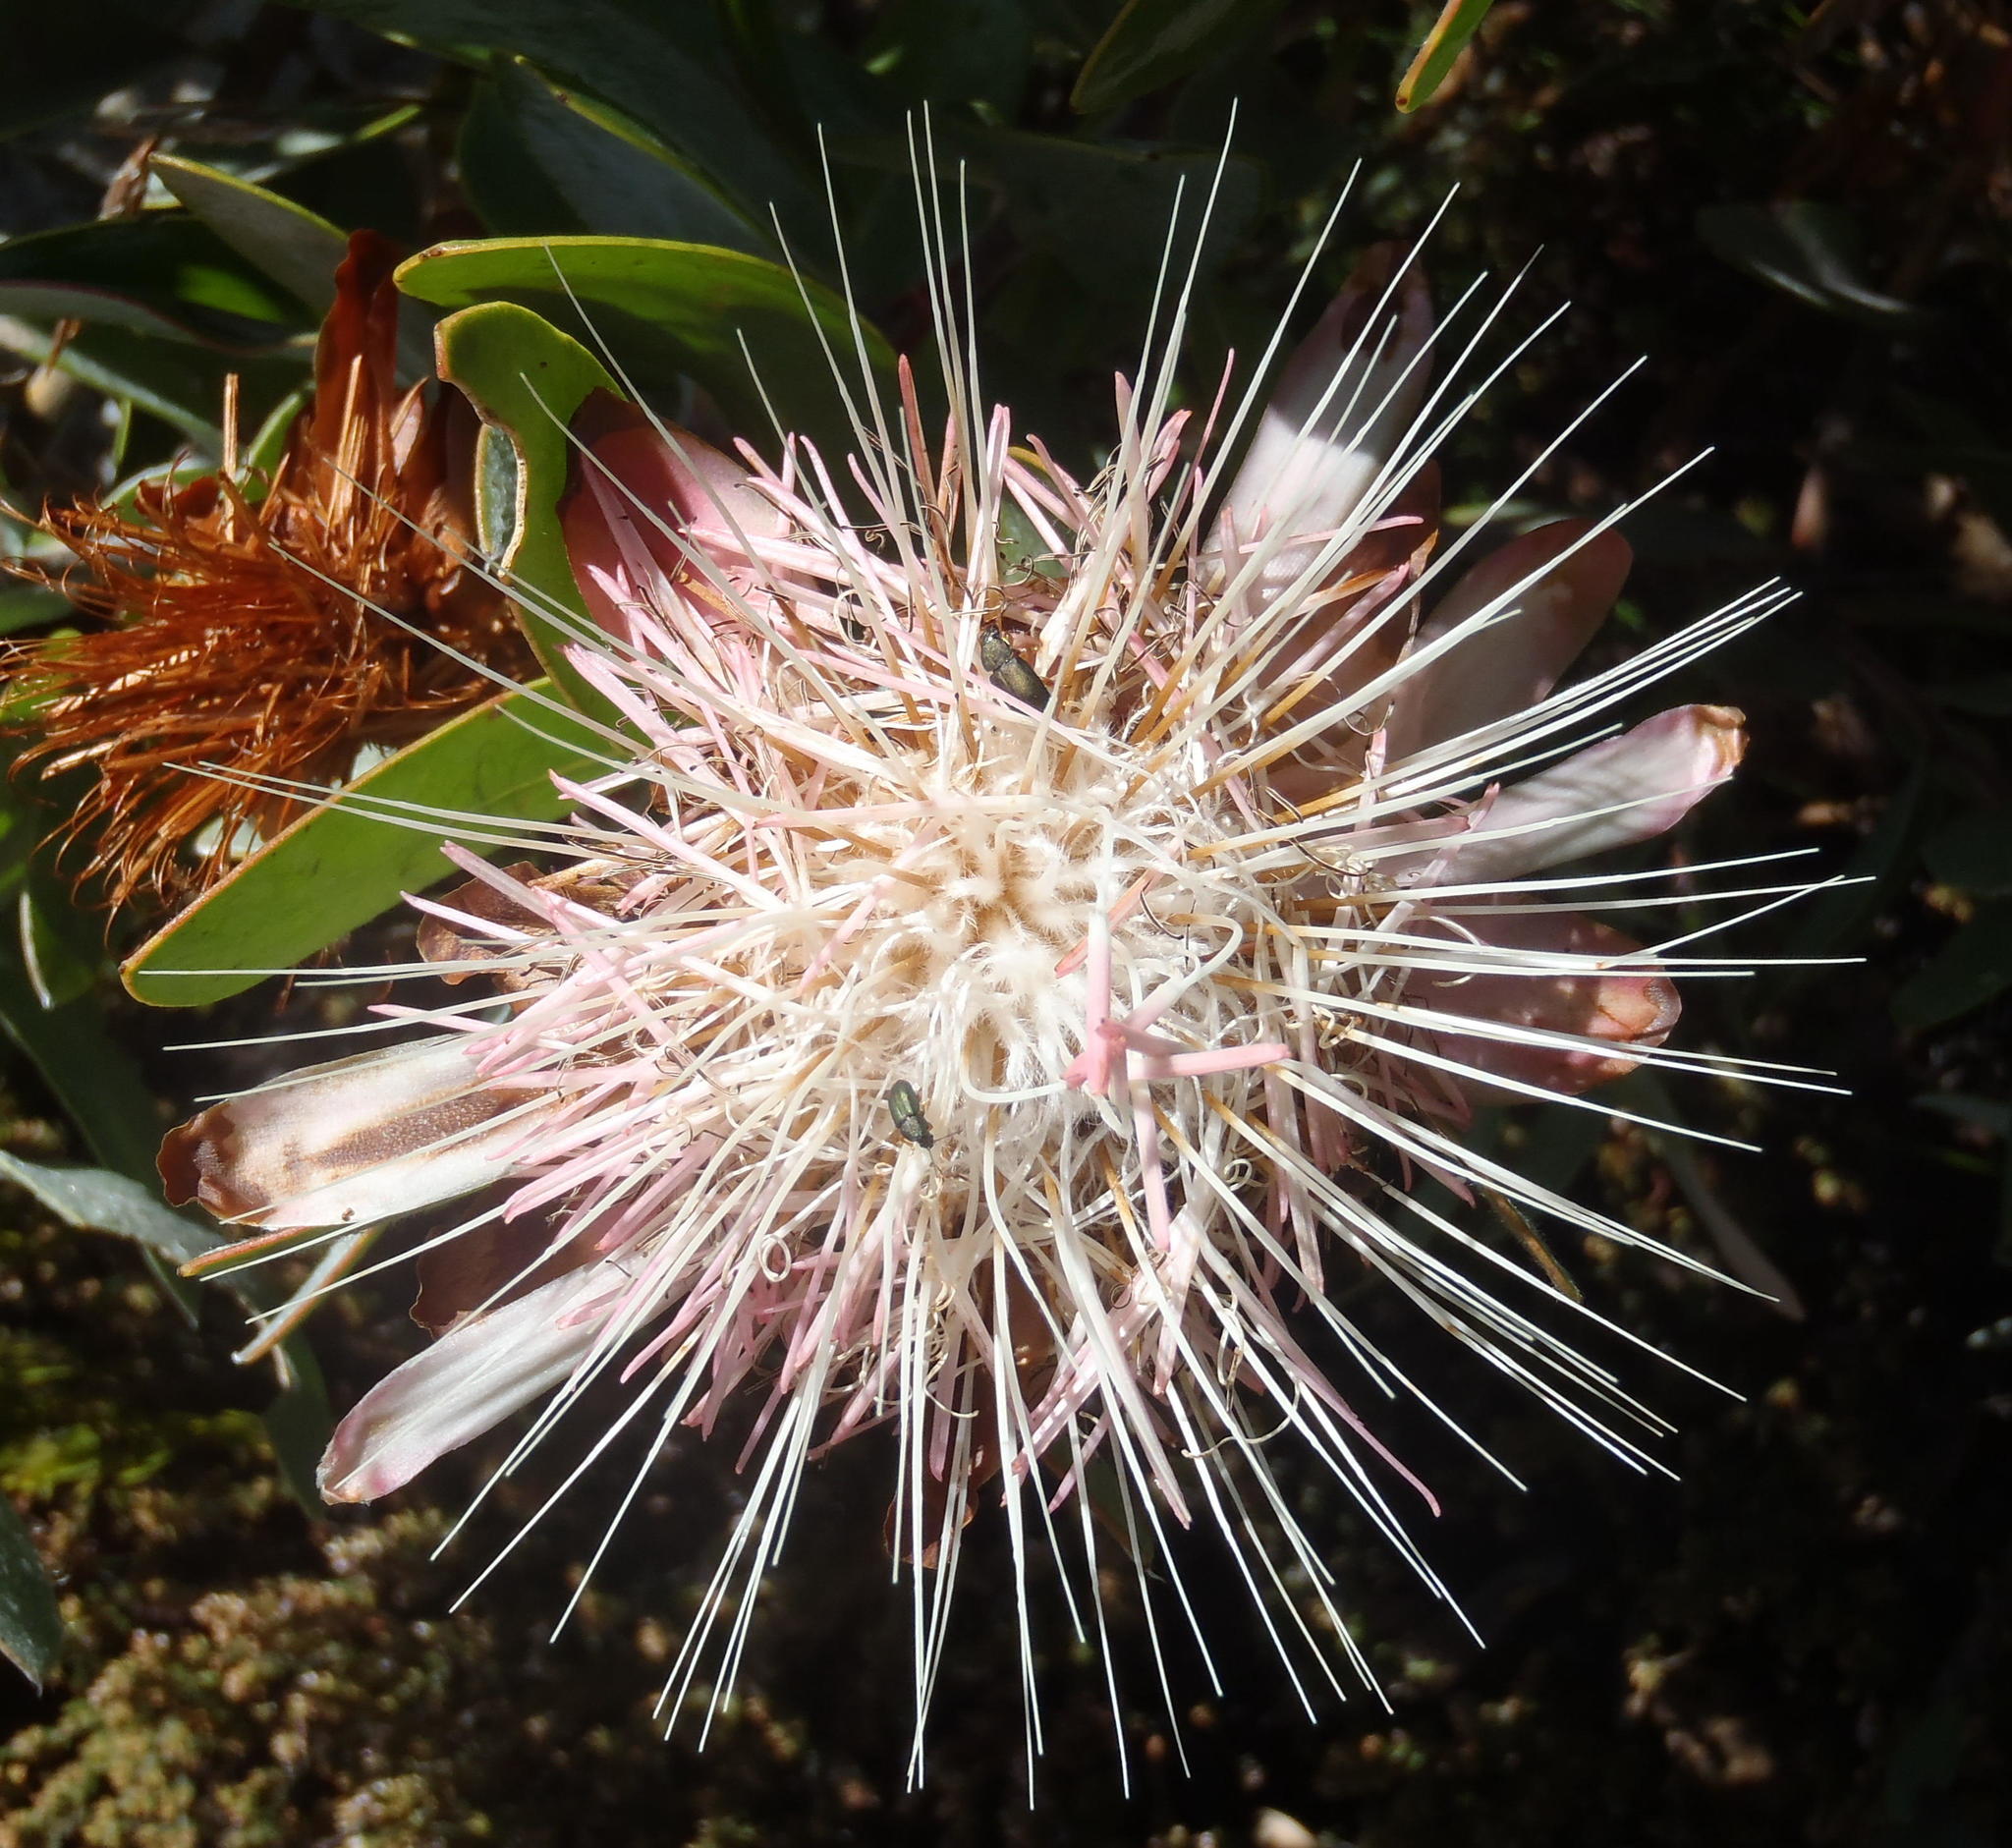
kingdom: Plantae
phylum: Tracheophyta
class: Magnoliopsida
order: Proteales
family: Proteaceae
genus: Protea
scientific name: Protea punctata
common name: Water sugarbush
